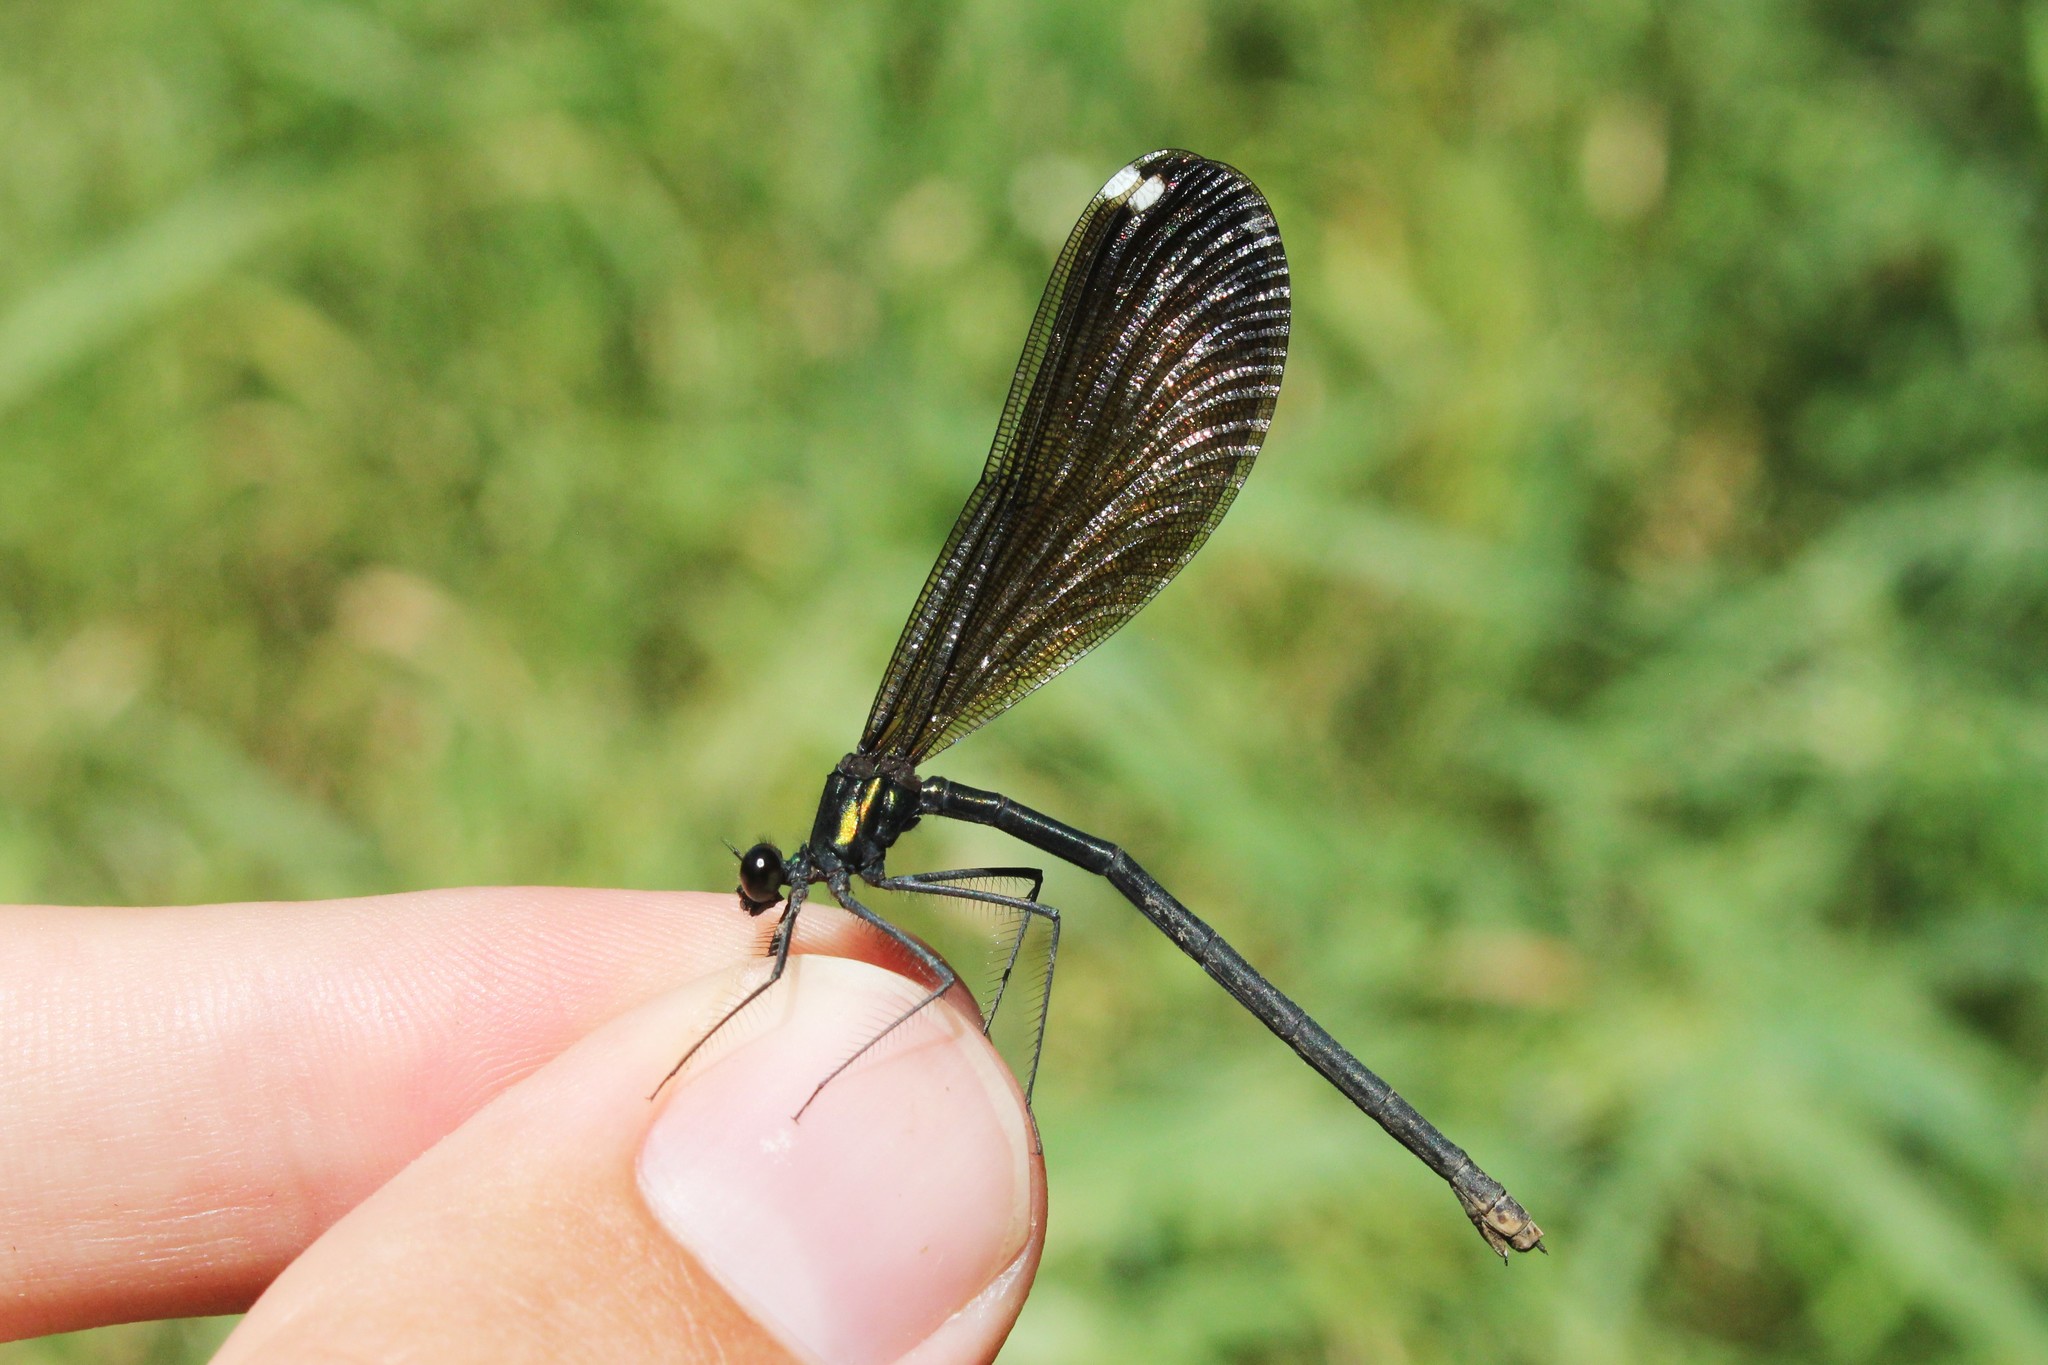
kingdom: Animalia
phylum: Arthropoda
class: Insecta
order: Odonata
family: Calopterygidae
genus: Calopteryx
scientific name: Calopteryx maculata
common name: Ebony jewelwing
